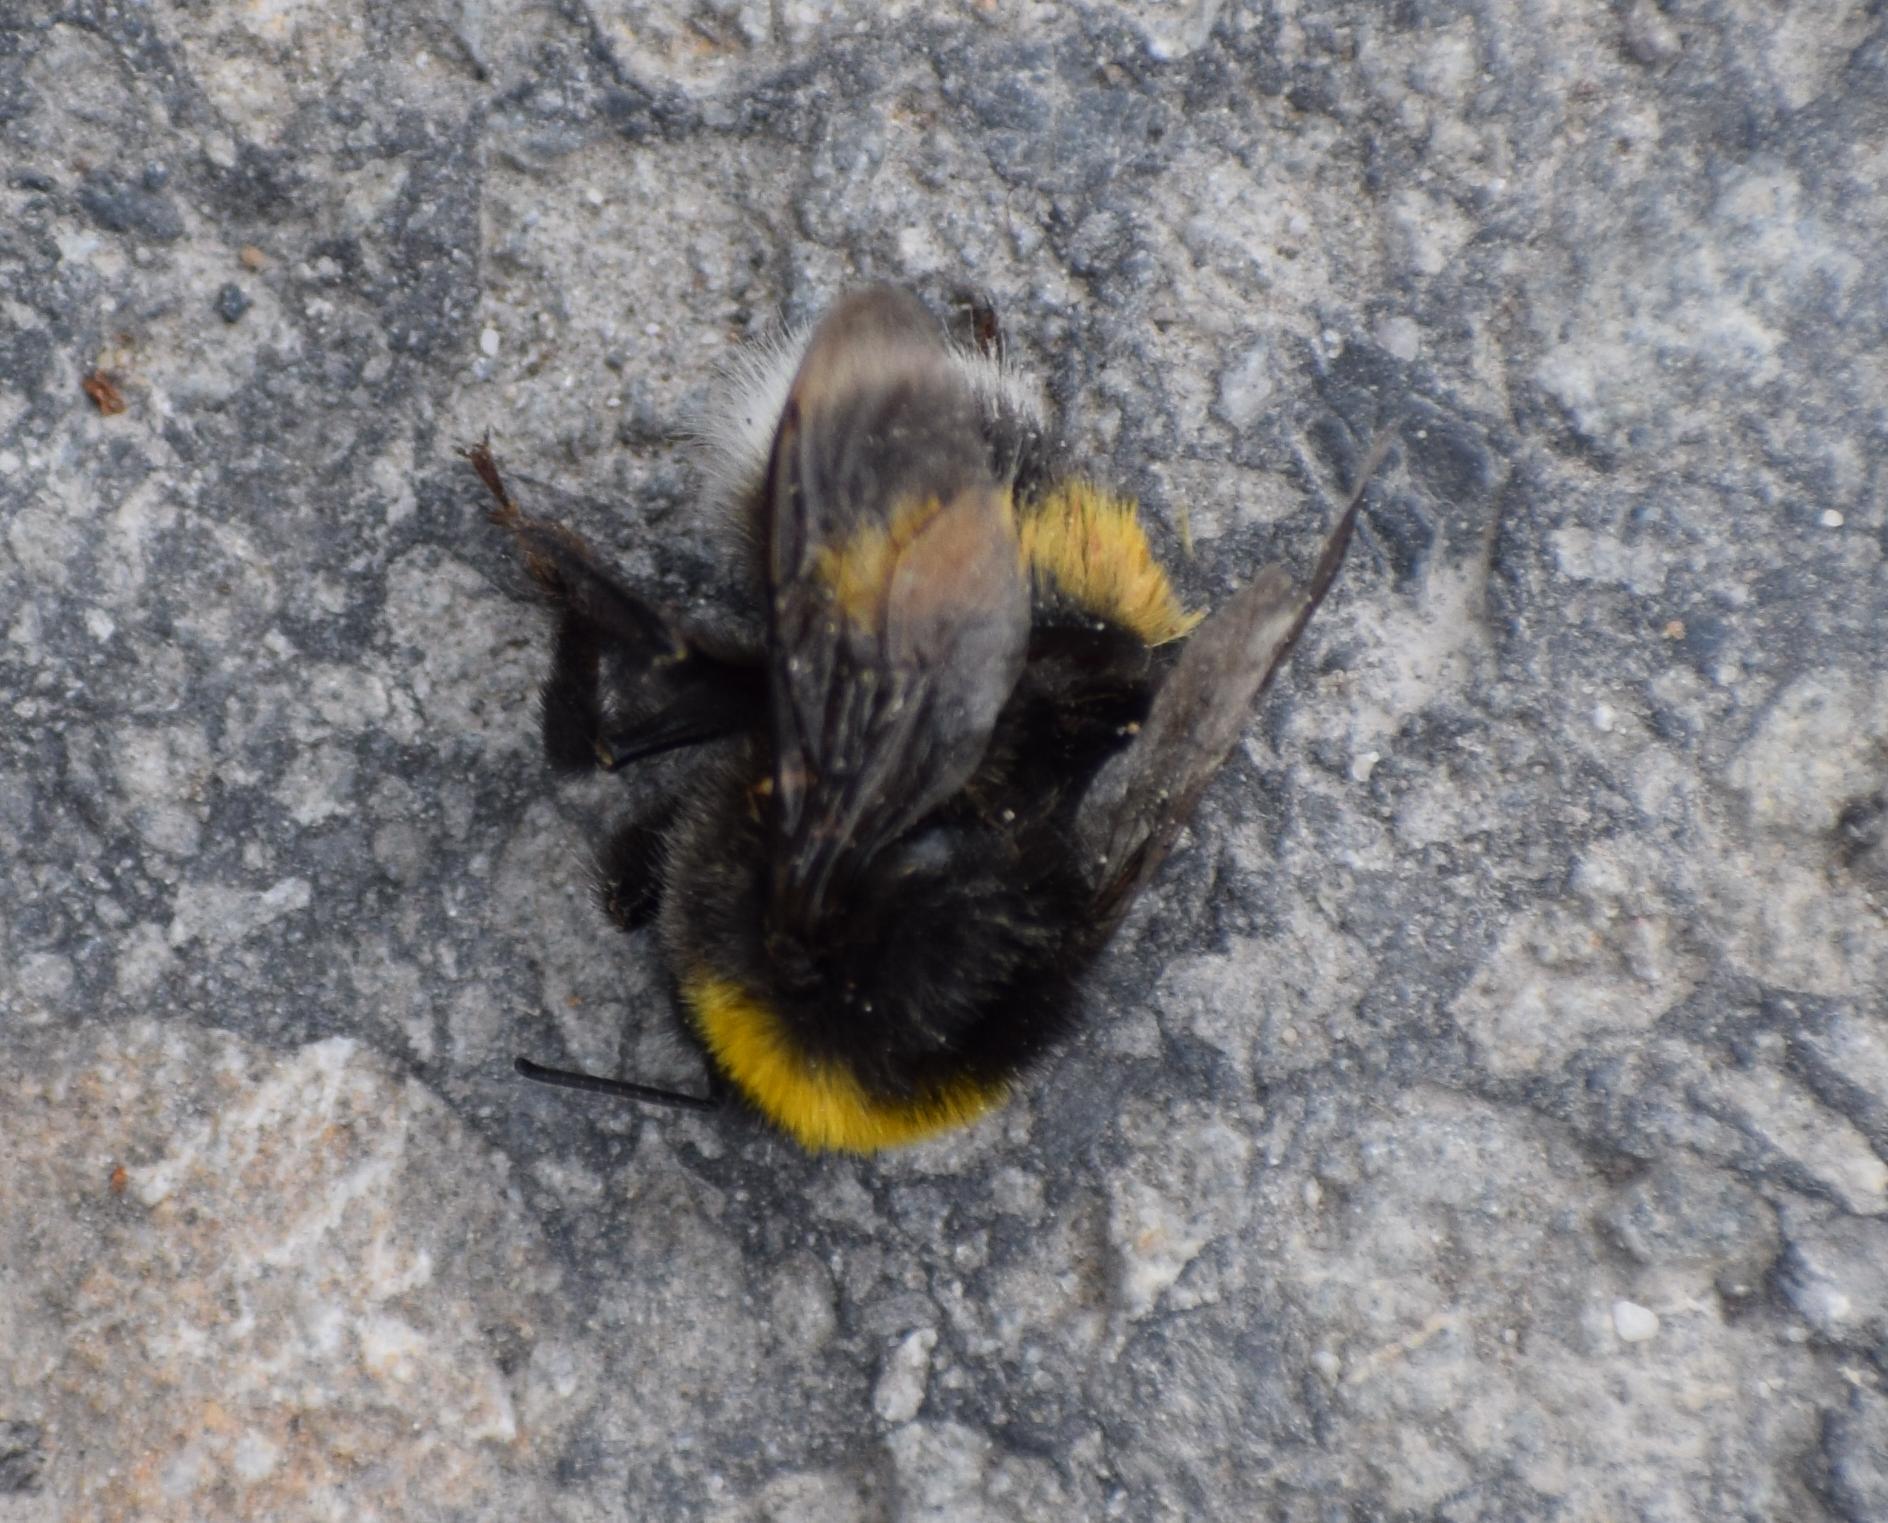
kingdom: Animalia
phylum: Arthropoda
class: Insecta
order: Hymenoptera
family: Apidae
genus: Bombus
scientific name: Bombus
